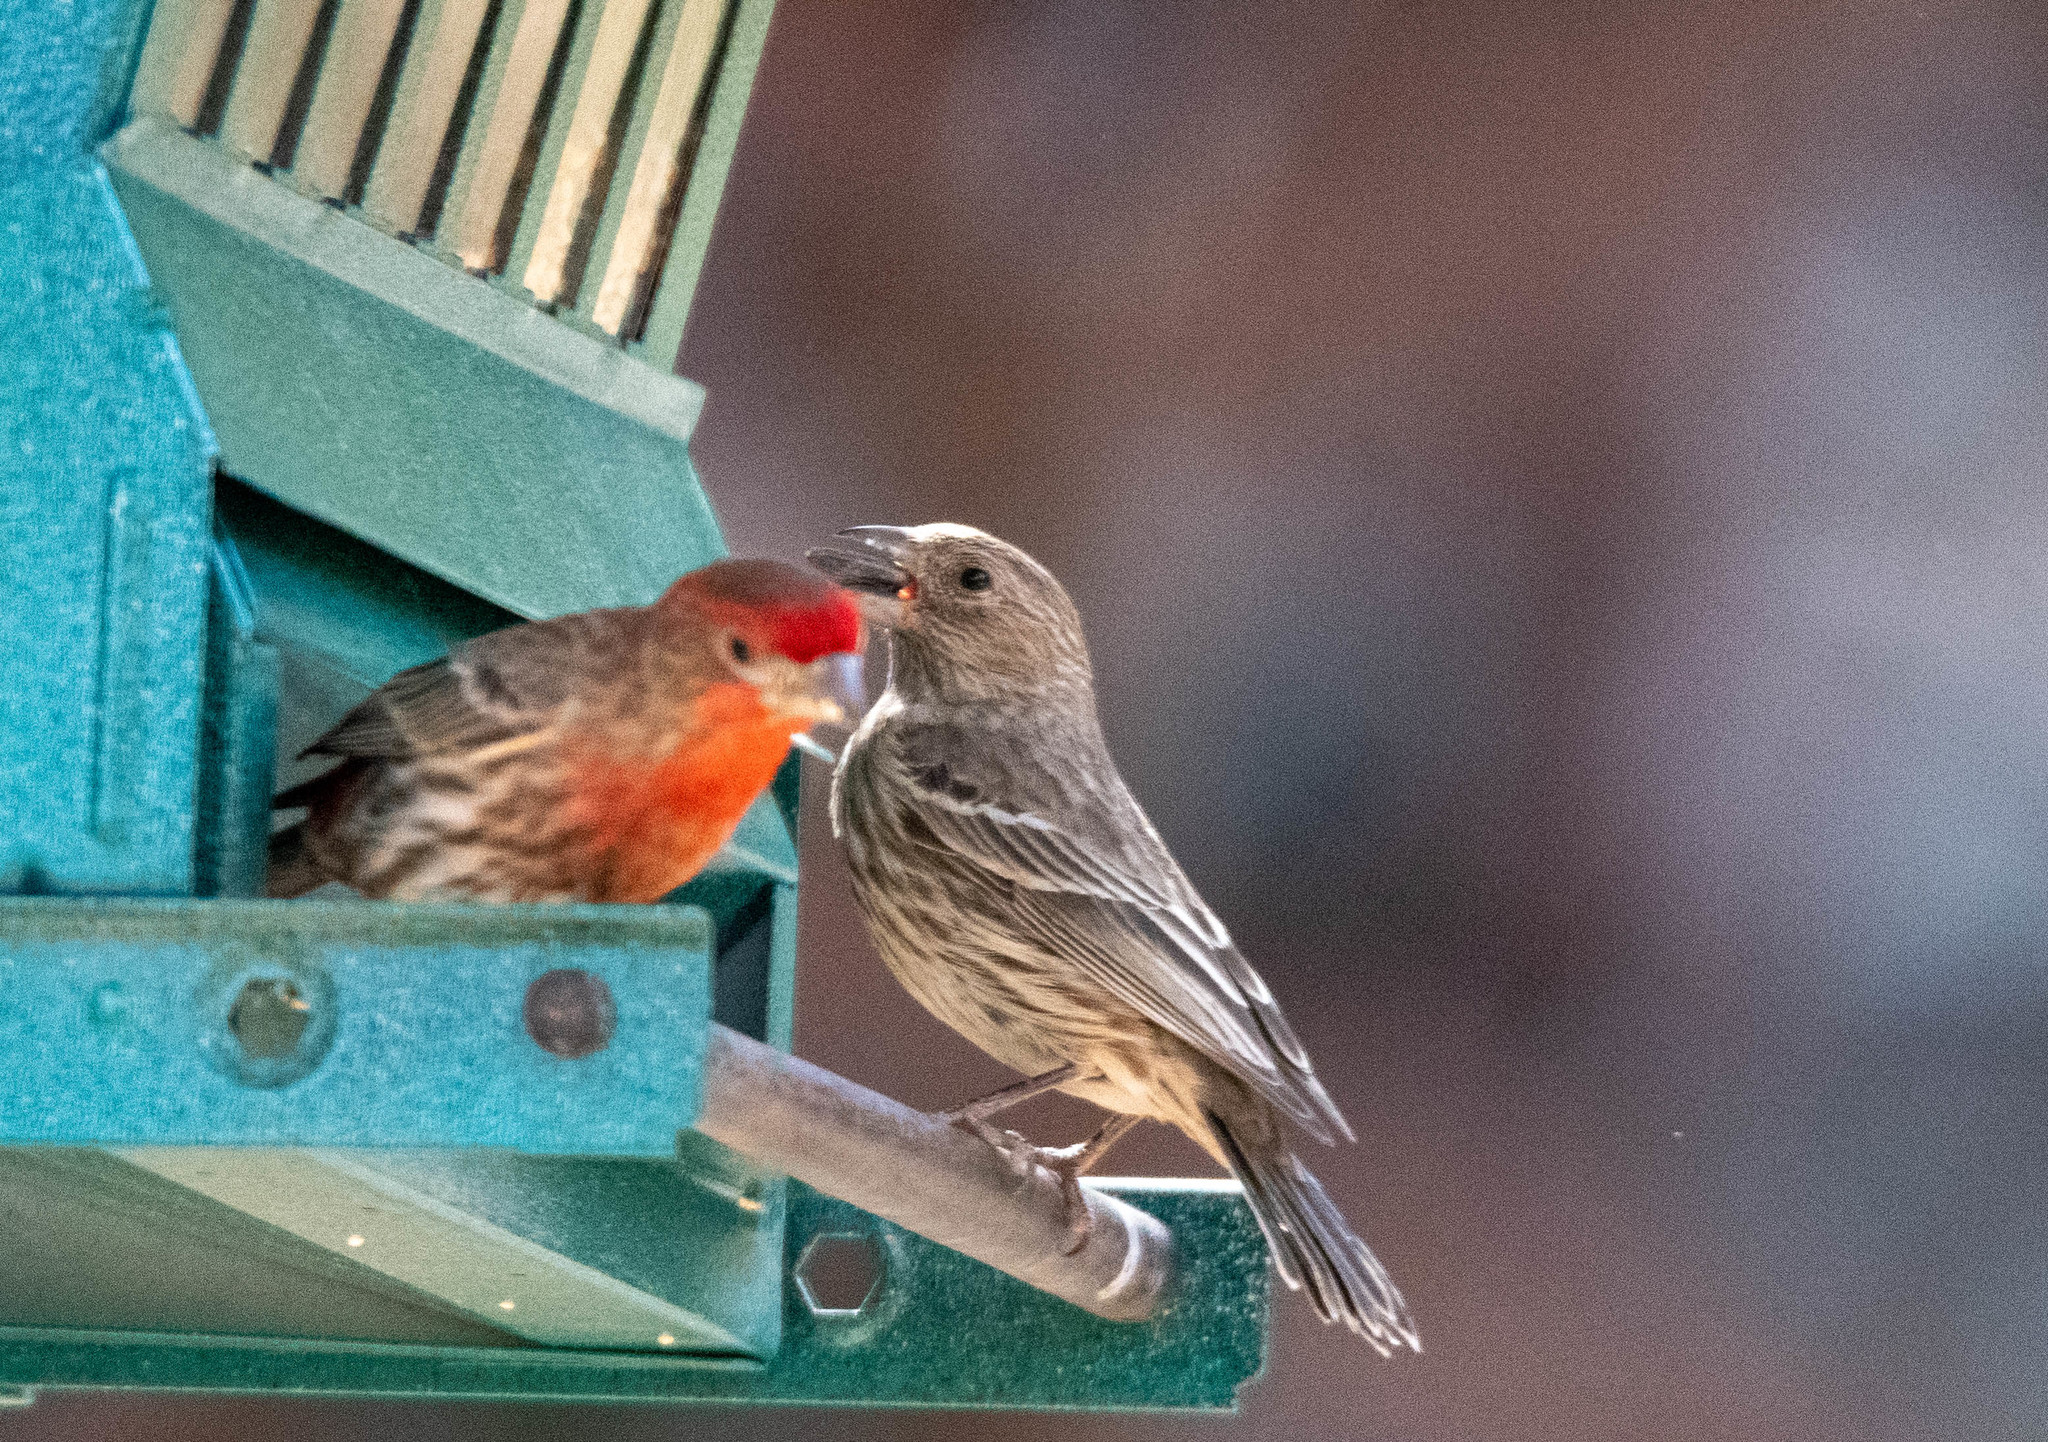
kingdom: Animalia
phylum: Chordata
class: Aves
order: Passeriformes
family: Fringillidae
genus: Haemorhous
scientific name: Haemorhous mexicanus
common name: House finch
